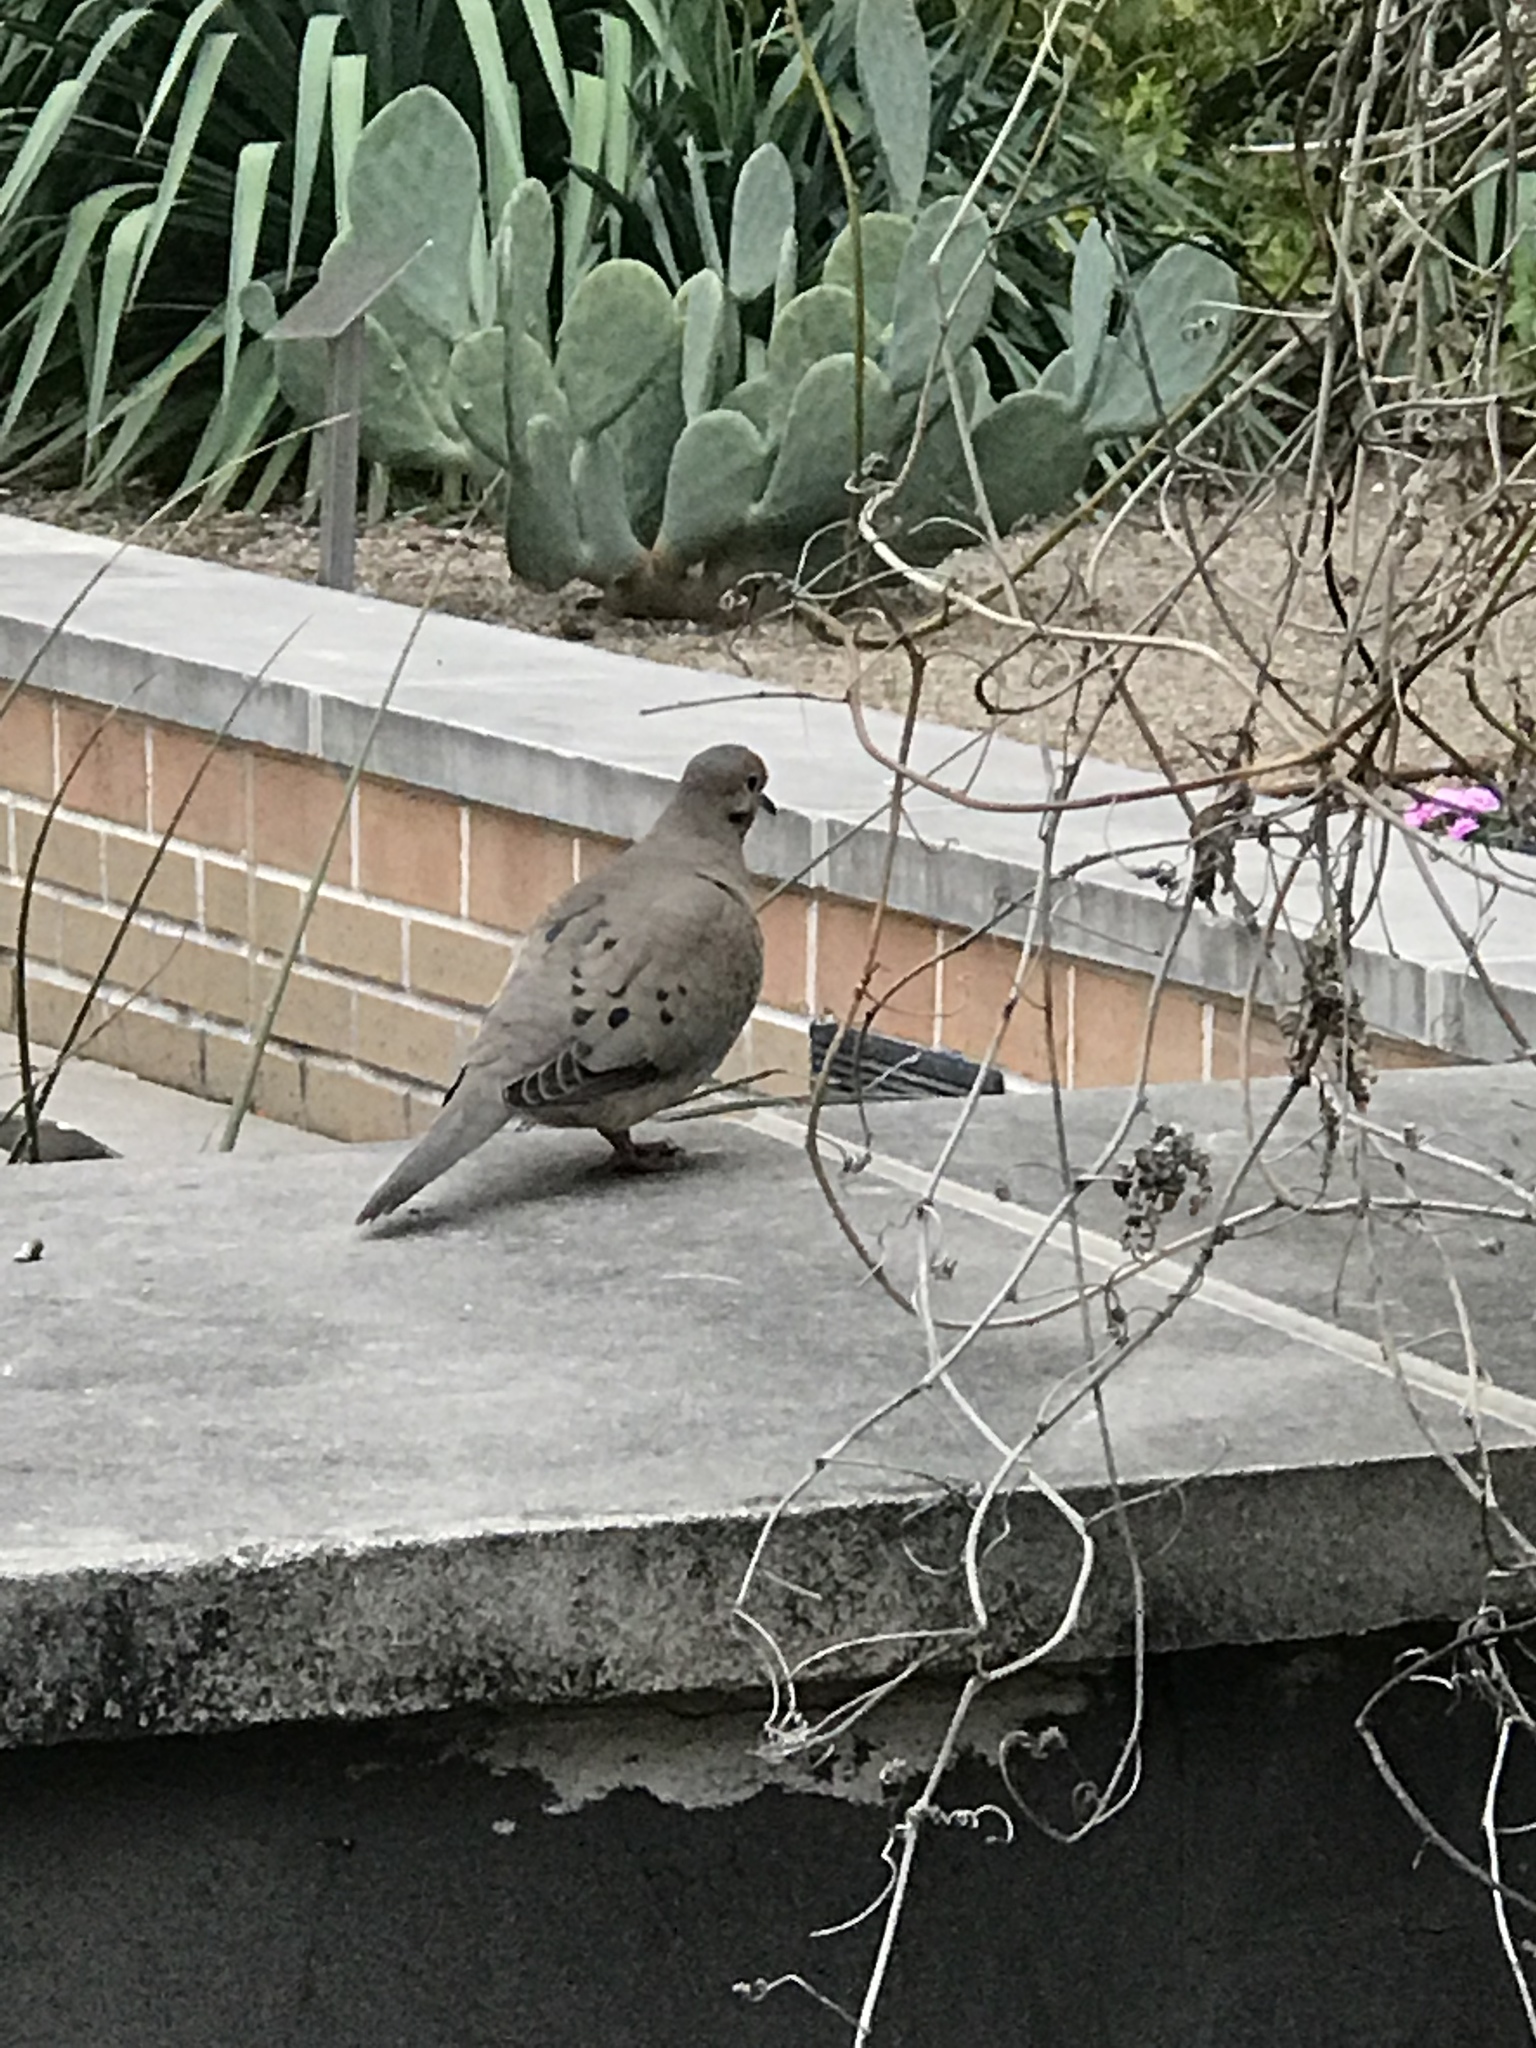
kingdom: Animalia
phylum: Chordata
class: Aves
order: Columbiformes
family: Columbidae
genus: Zenaida
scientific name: Zenaida macroura
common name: Mourning dove
